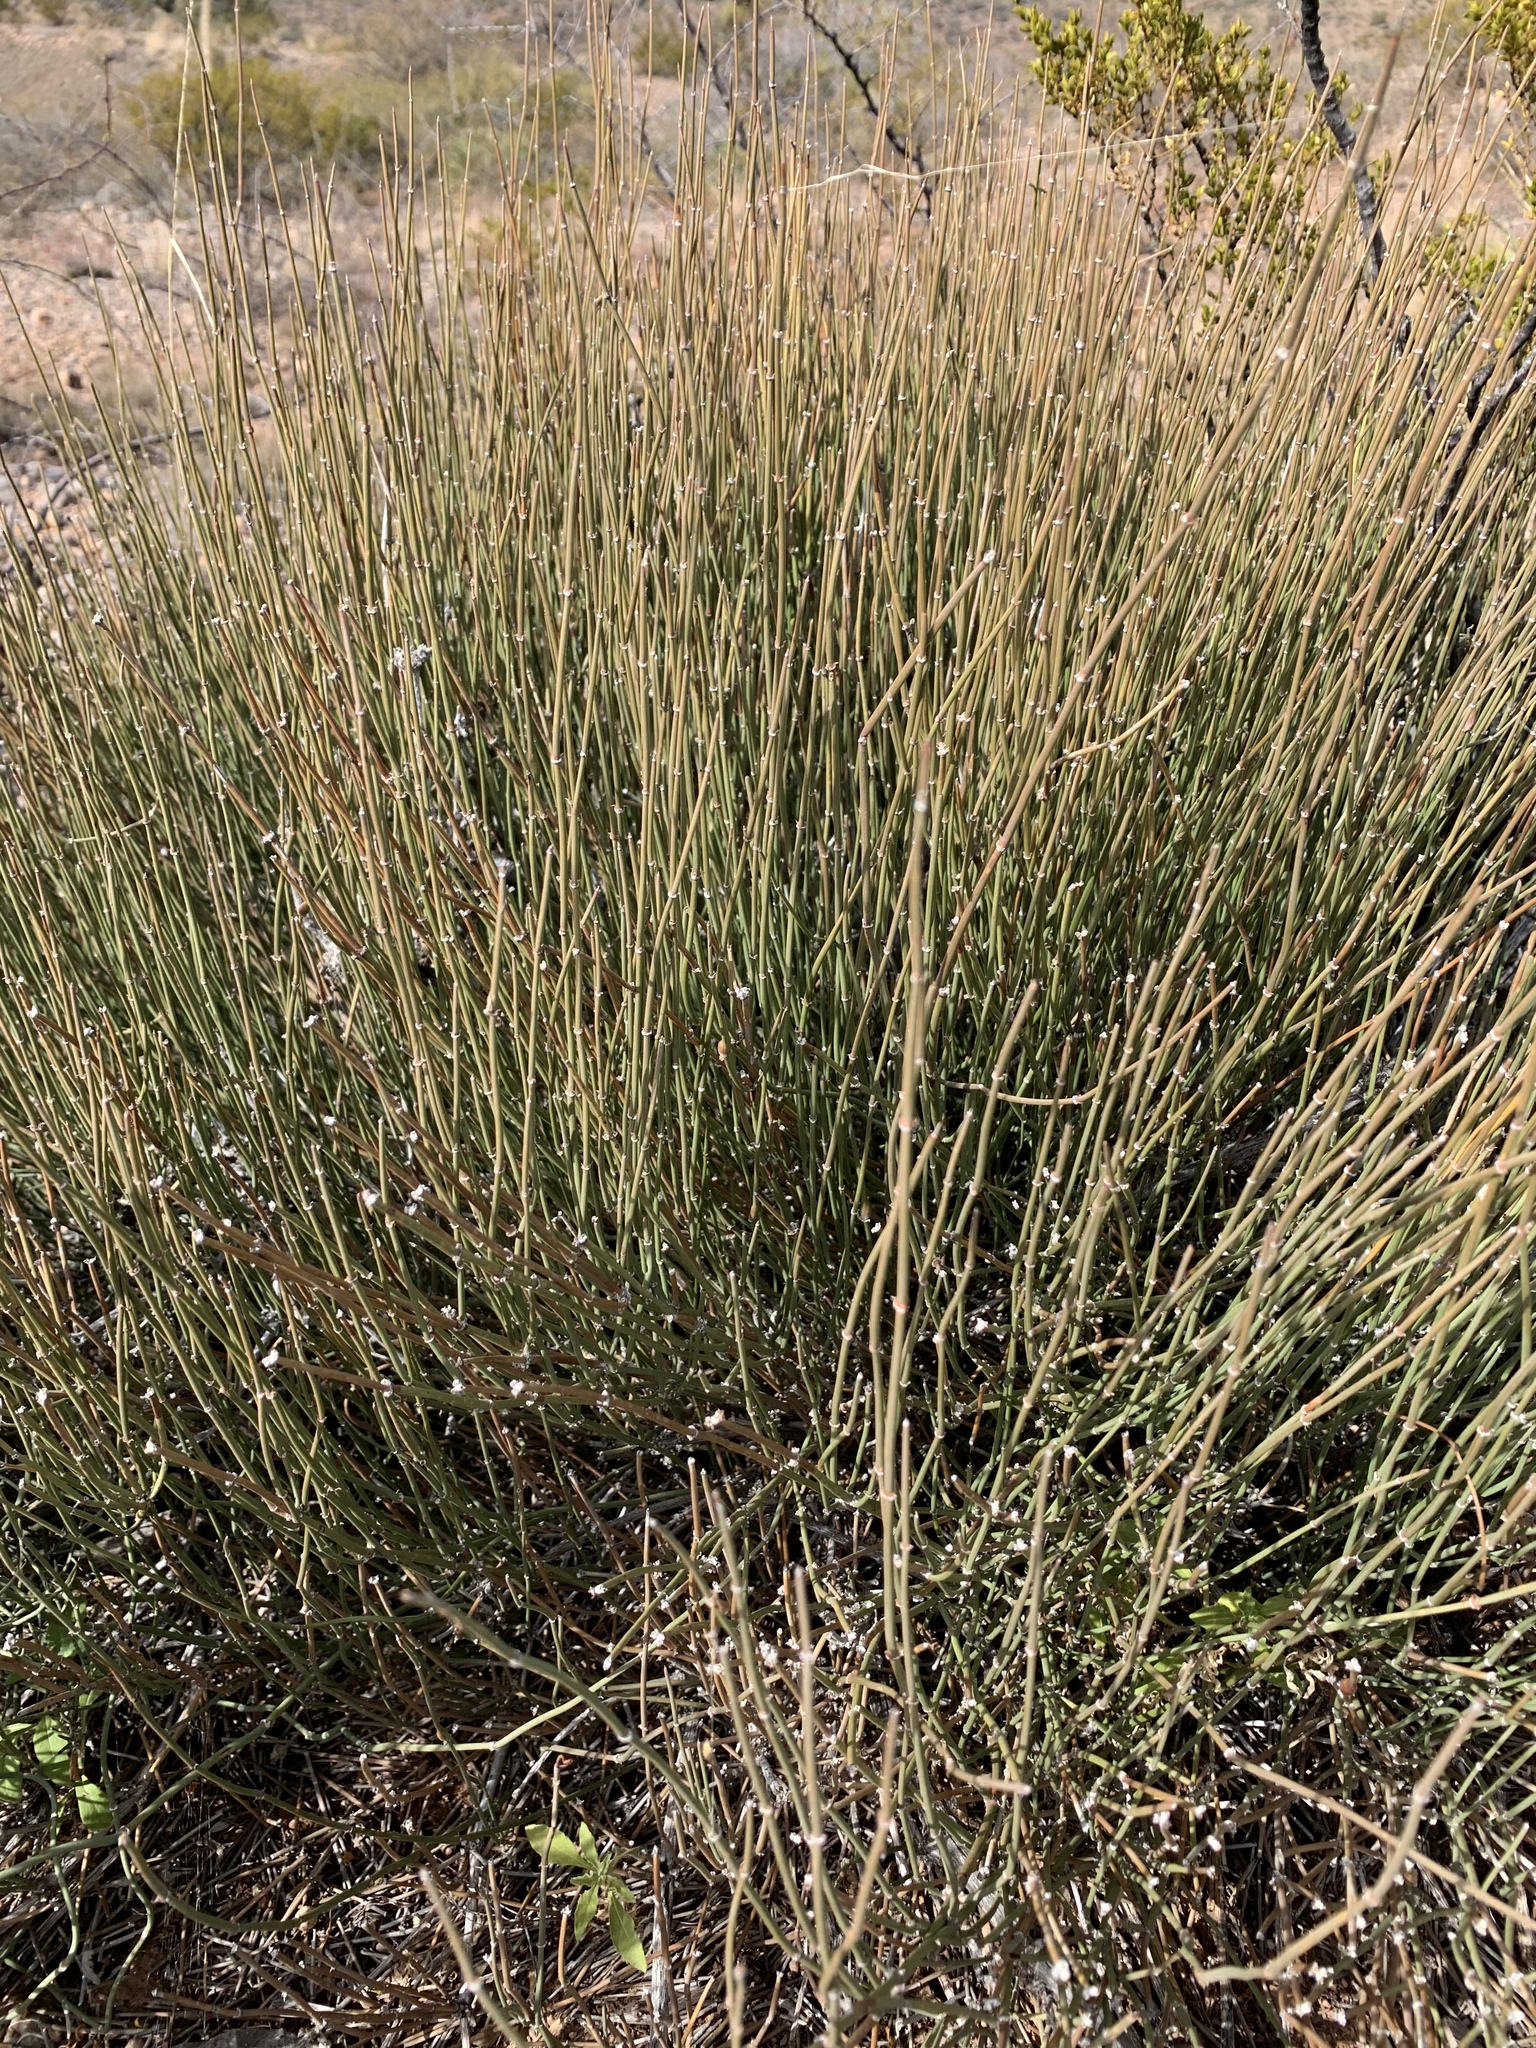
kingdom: Plantae
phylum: Tracheophyta
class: Gnetopsida
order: Ephedrales
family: Ephedraceae
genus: Ephedra
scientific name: Ephedra trifurca
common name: Mexican-tea
